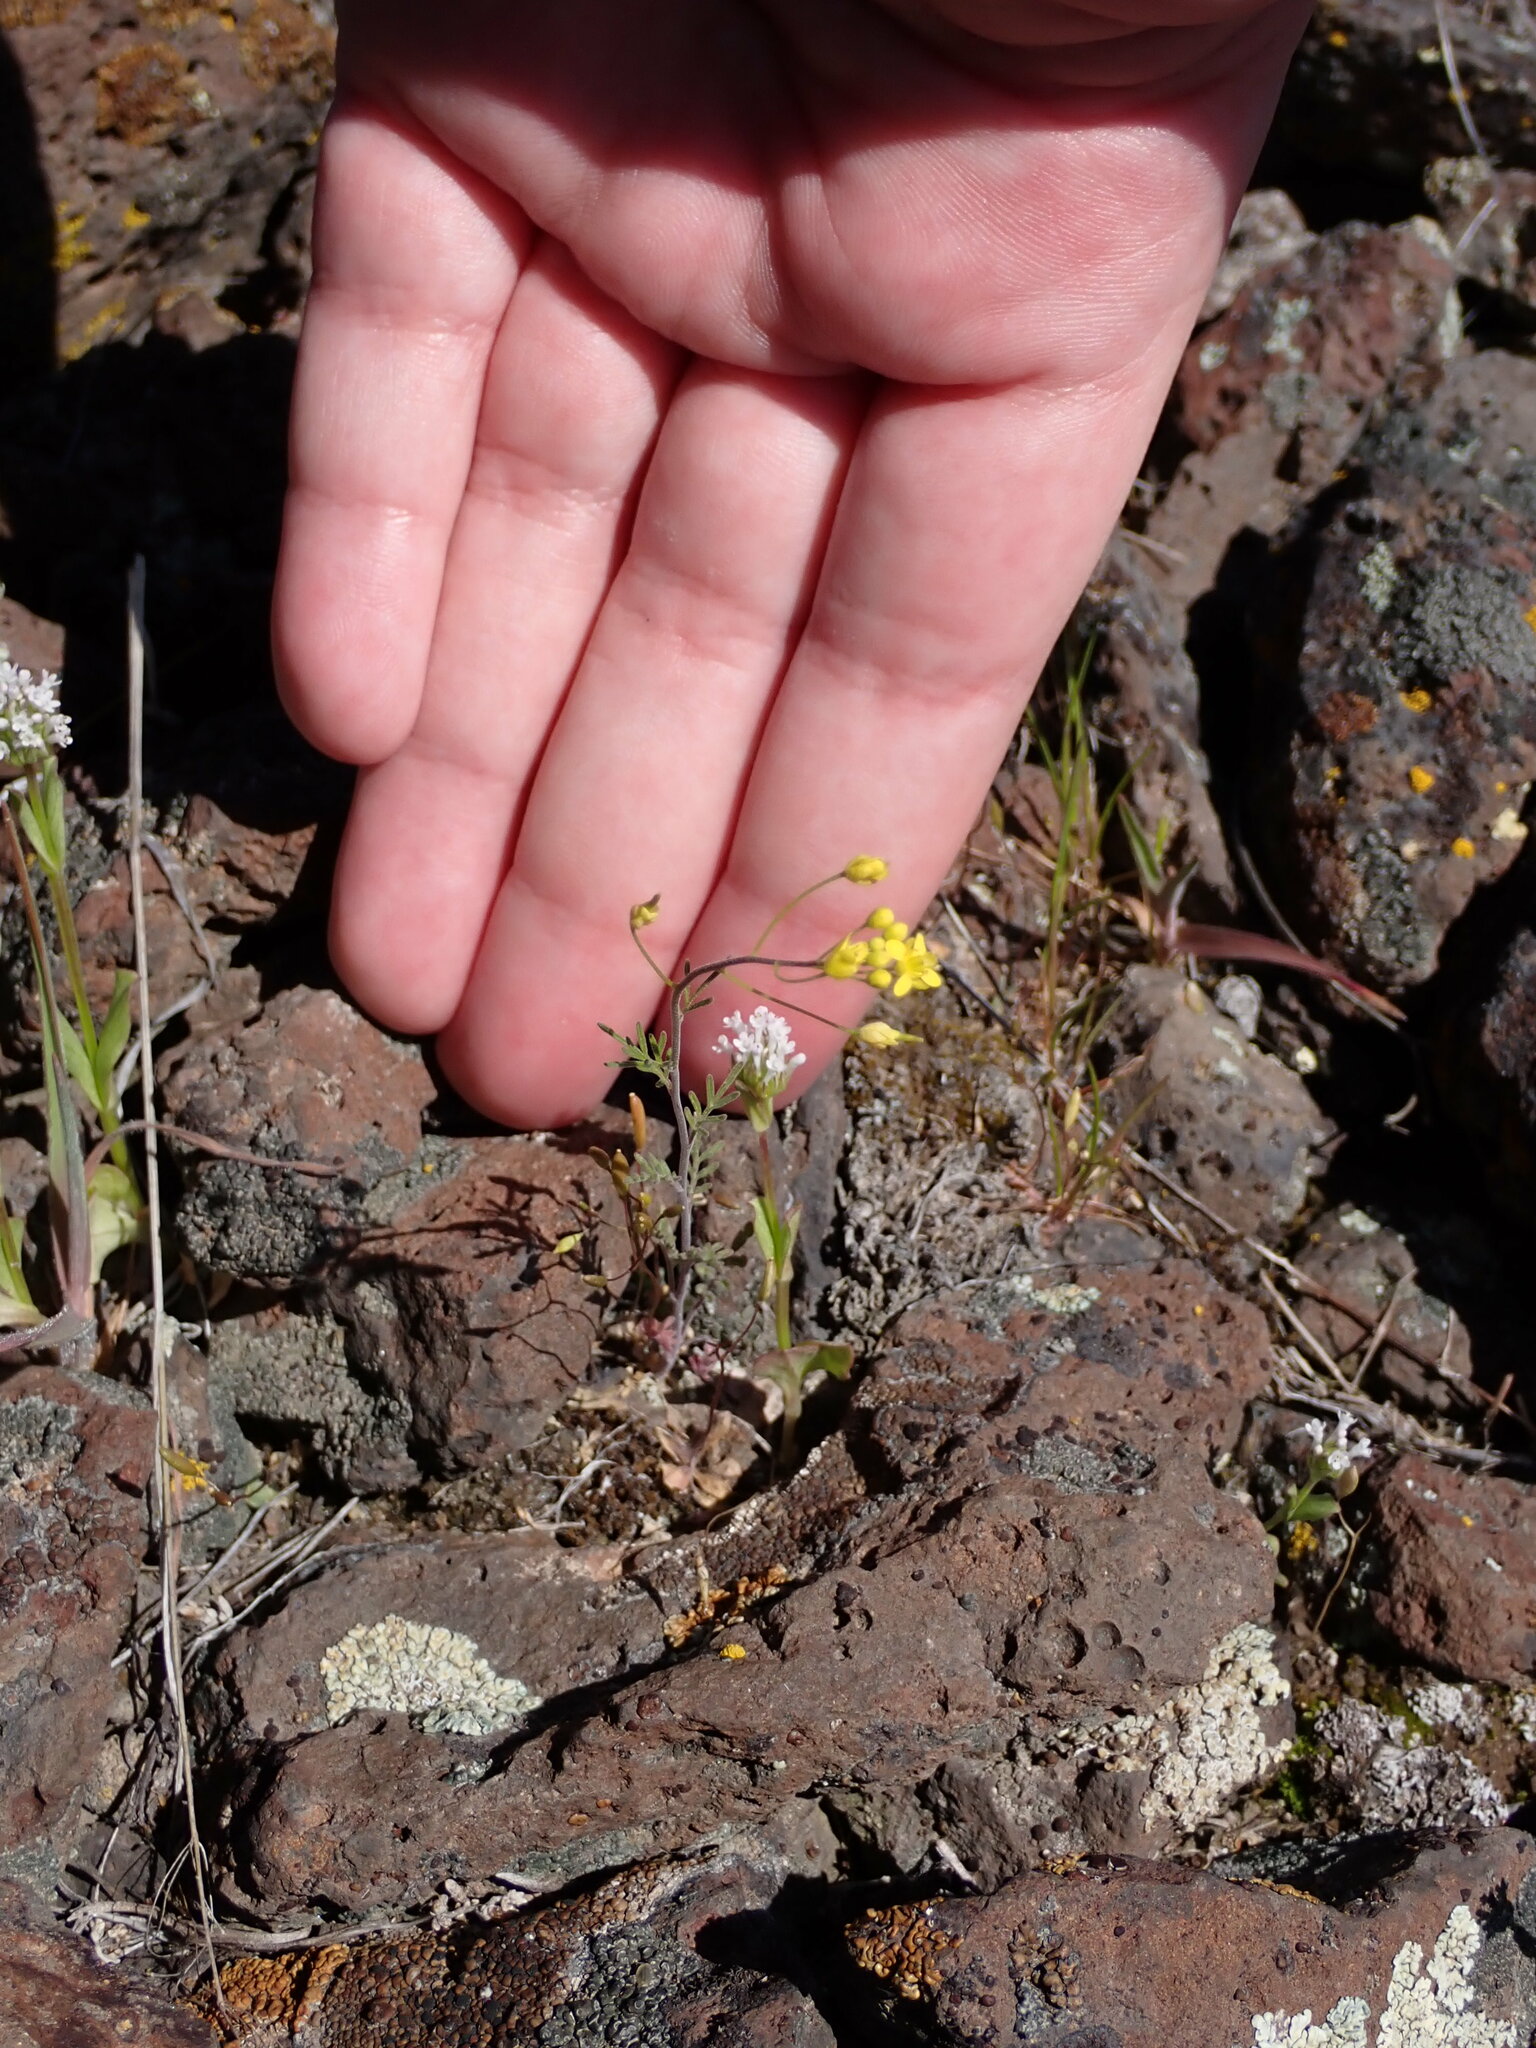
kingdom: Plantae
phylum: Tracheophyta
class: Magnoliopsida
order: Dipsacales
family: Caprifoliaceae
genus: Plectritis
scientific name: Plectritis macroptera
